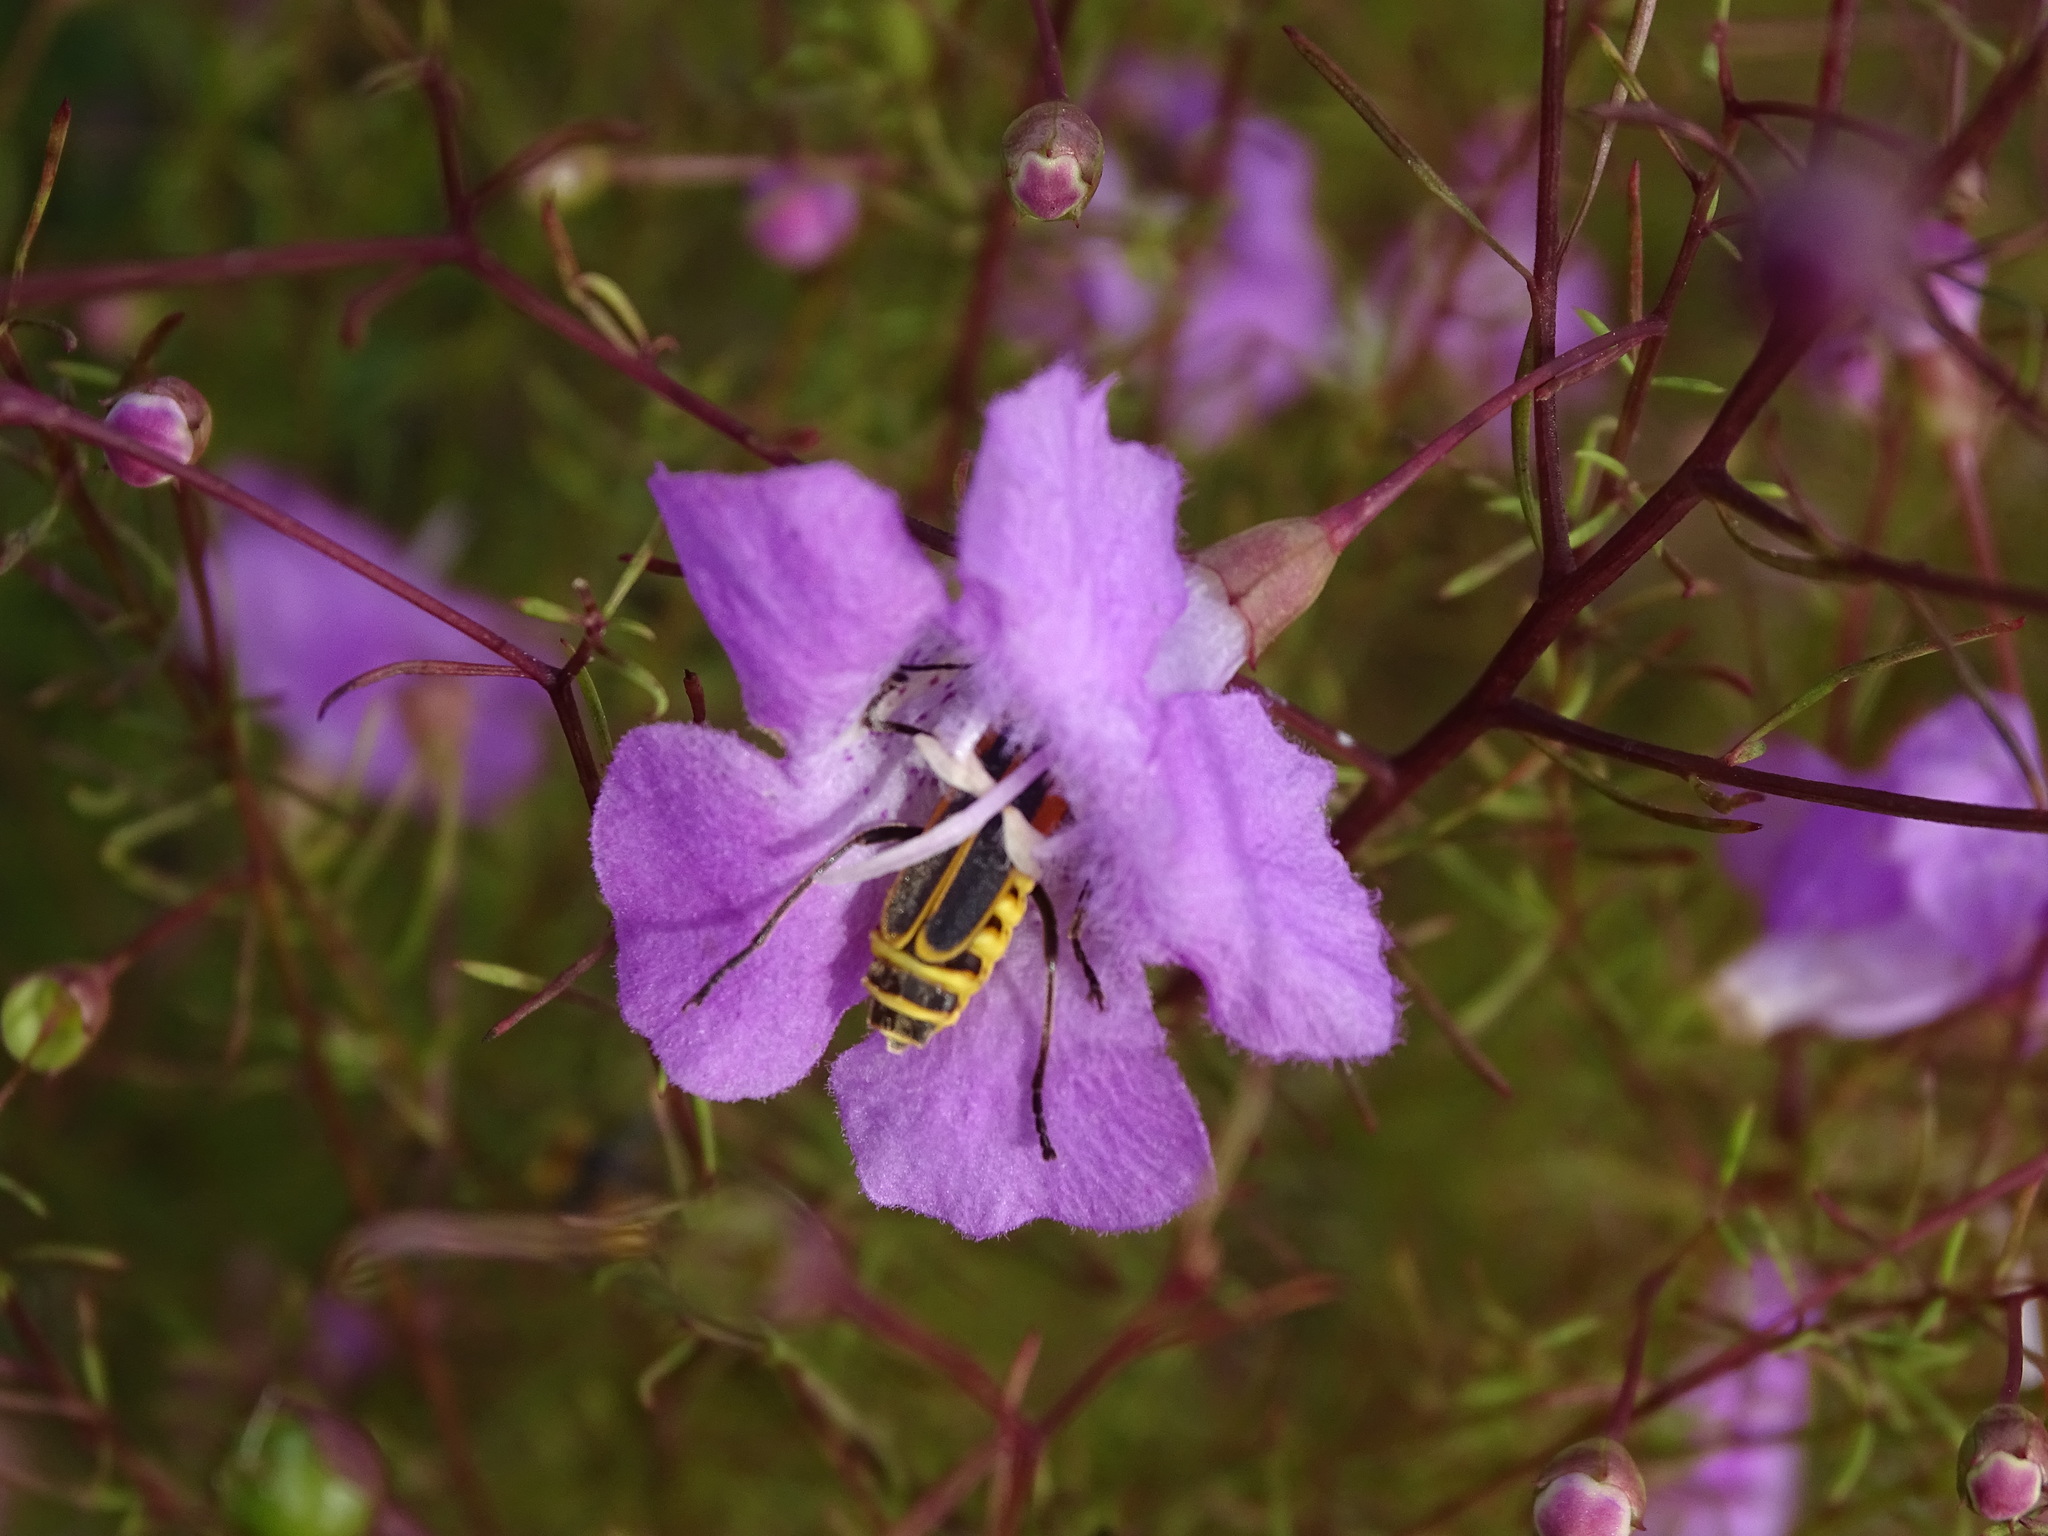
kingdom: Animalia
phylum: Arthropoda
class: Insecta
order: Coleoptera
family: Cantharidae
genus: Chauliognathus
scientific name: Chauliognathus pensylvanicus
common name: Goldenrod soldier beetle
